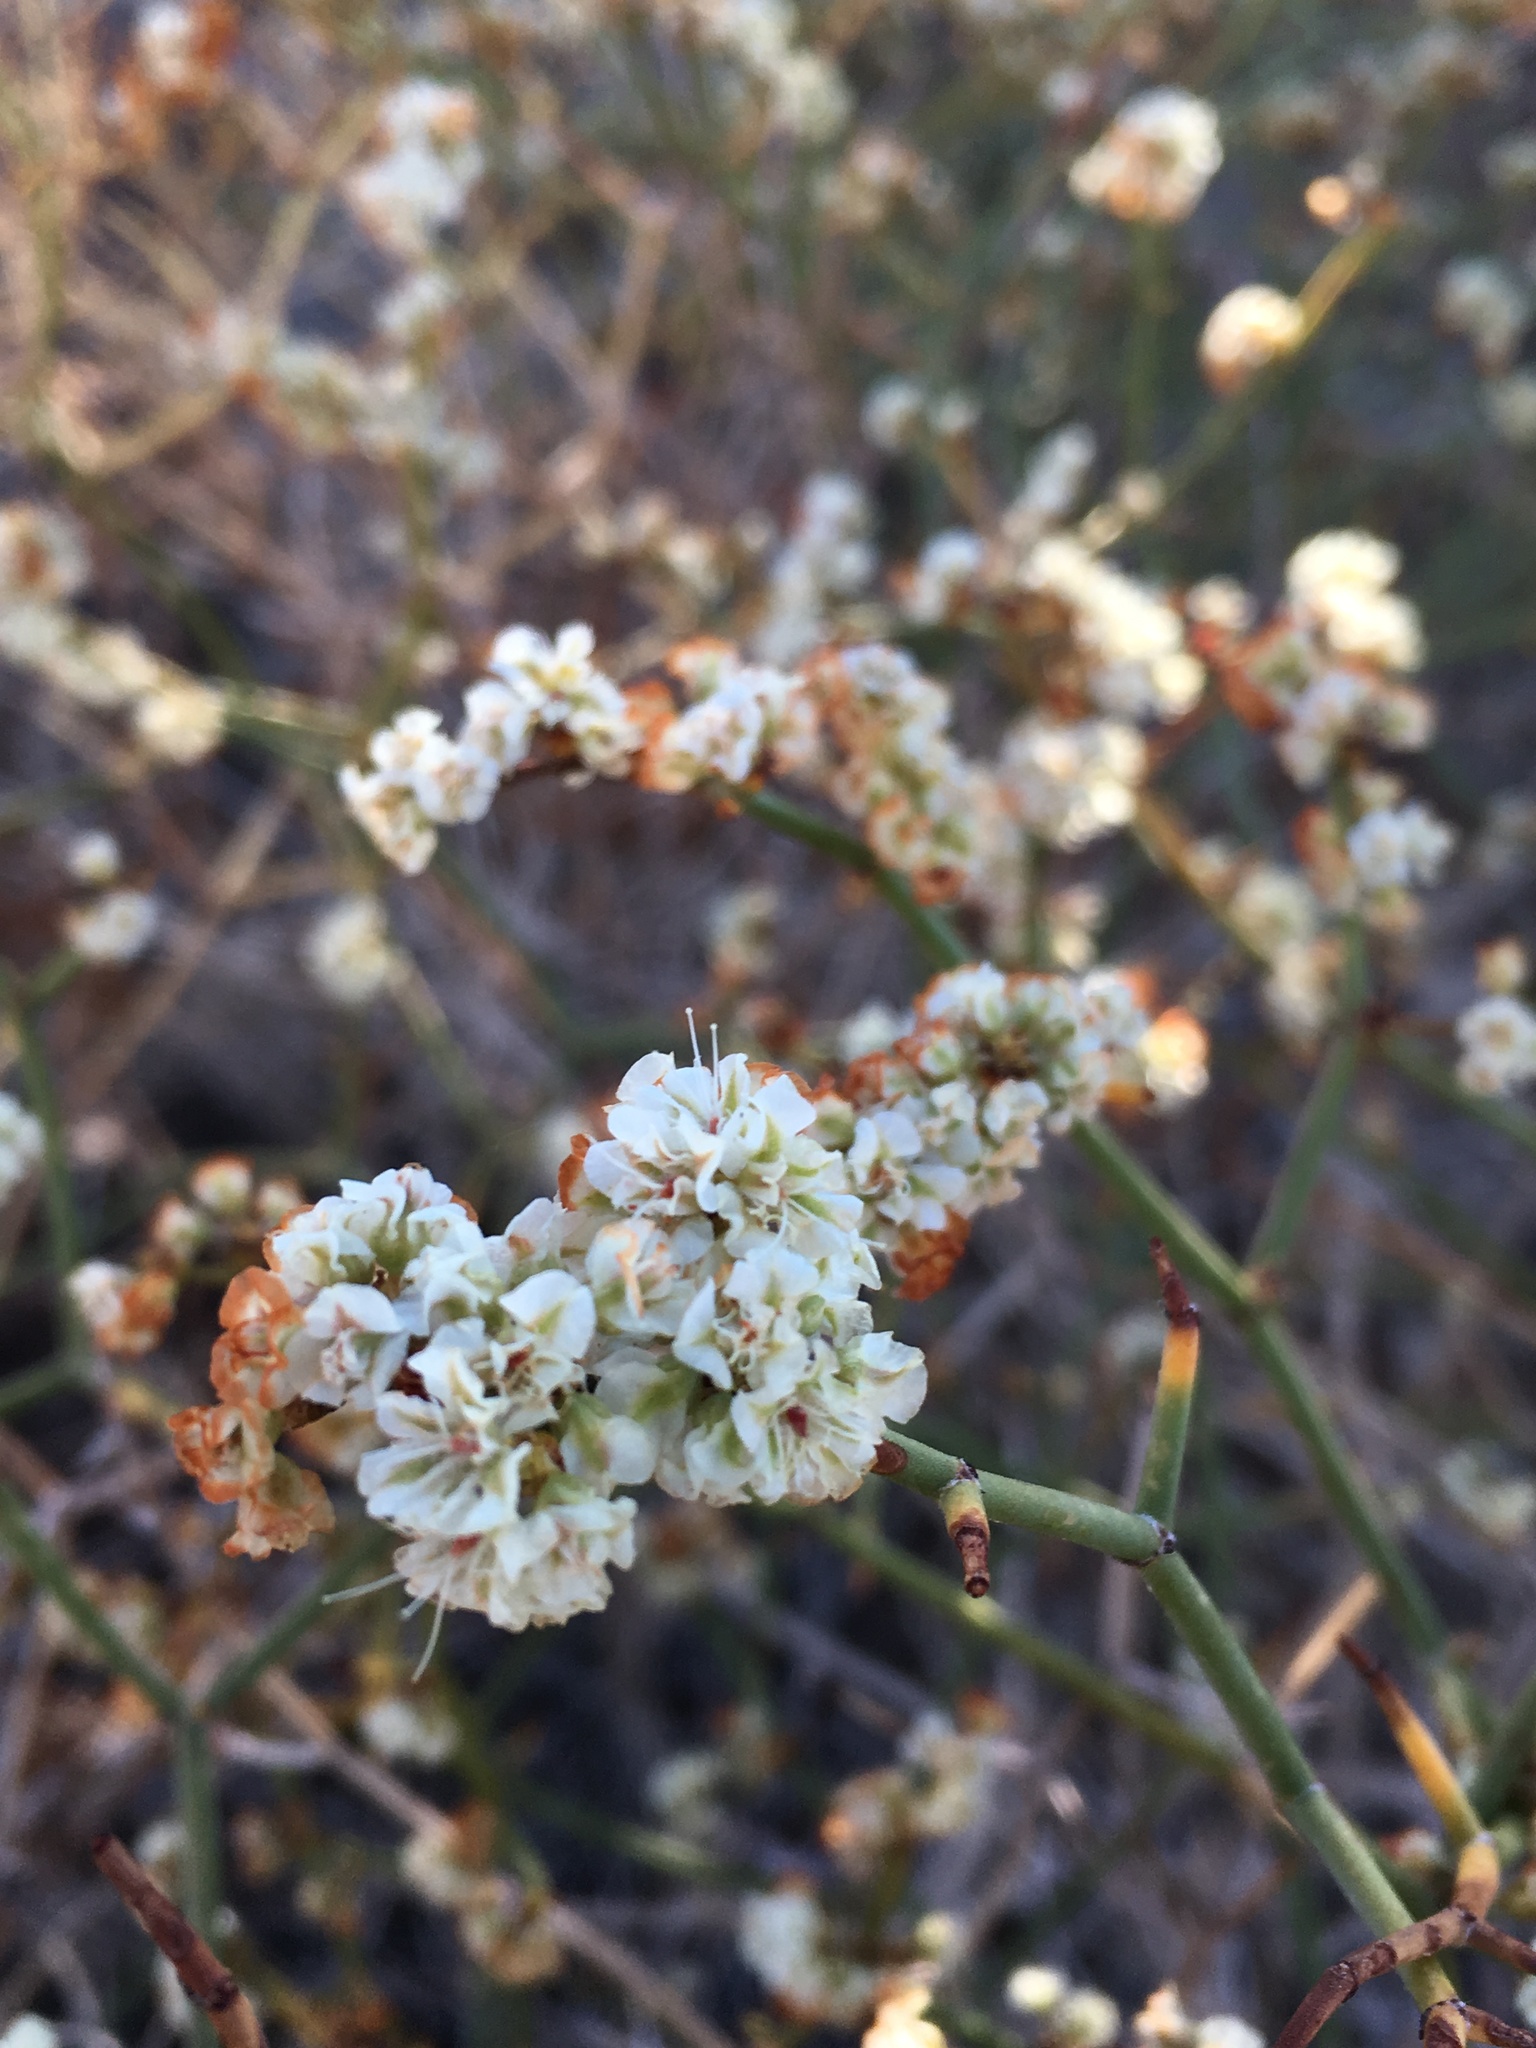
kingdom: Plantae
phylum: Tracheophyta
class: Magnoliopsida
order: Caryophyllales
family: Polygonaceae
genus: Eriogonum
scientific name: Eriogonum heermannii
